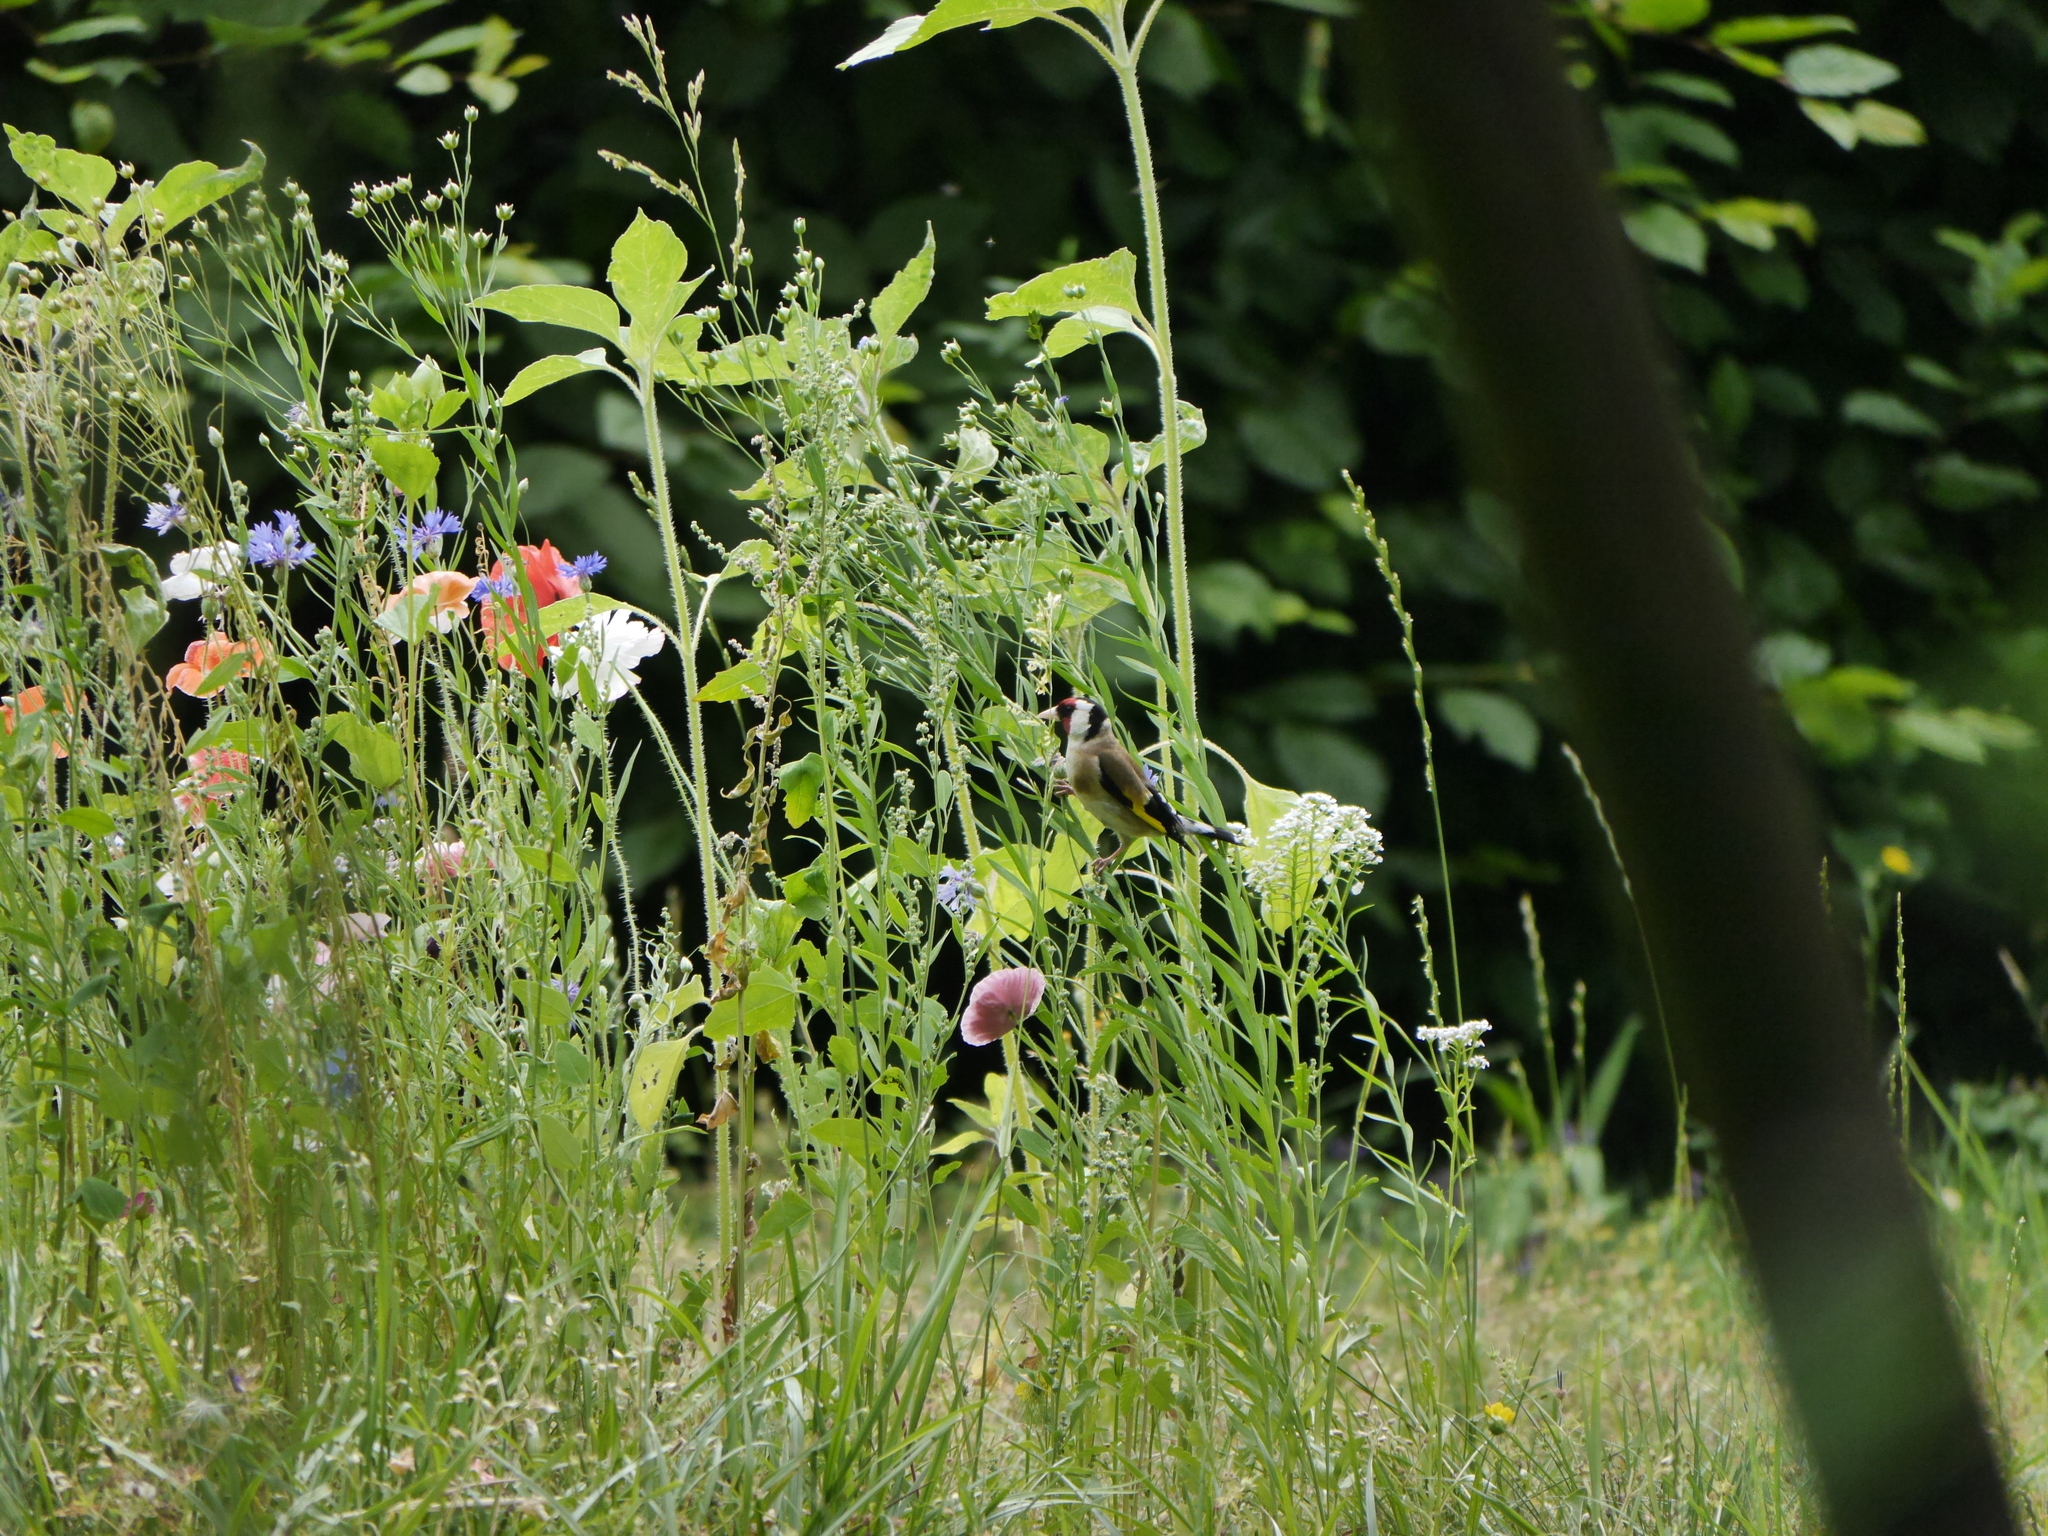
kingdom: Animalia
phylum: Chordata
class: Aves
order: Passeriformes
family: Fringillidae
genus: Carduelis
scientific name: Carduelis carduelis
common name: European goldfinch
